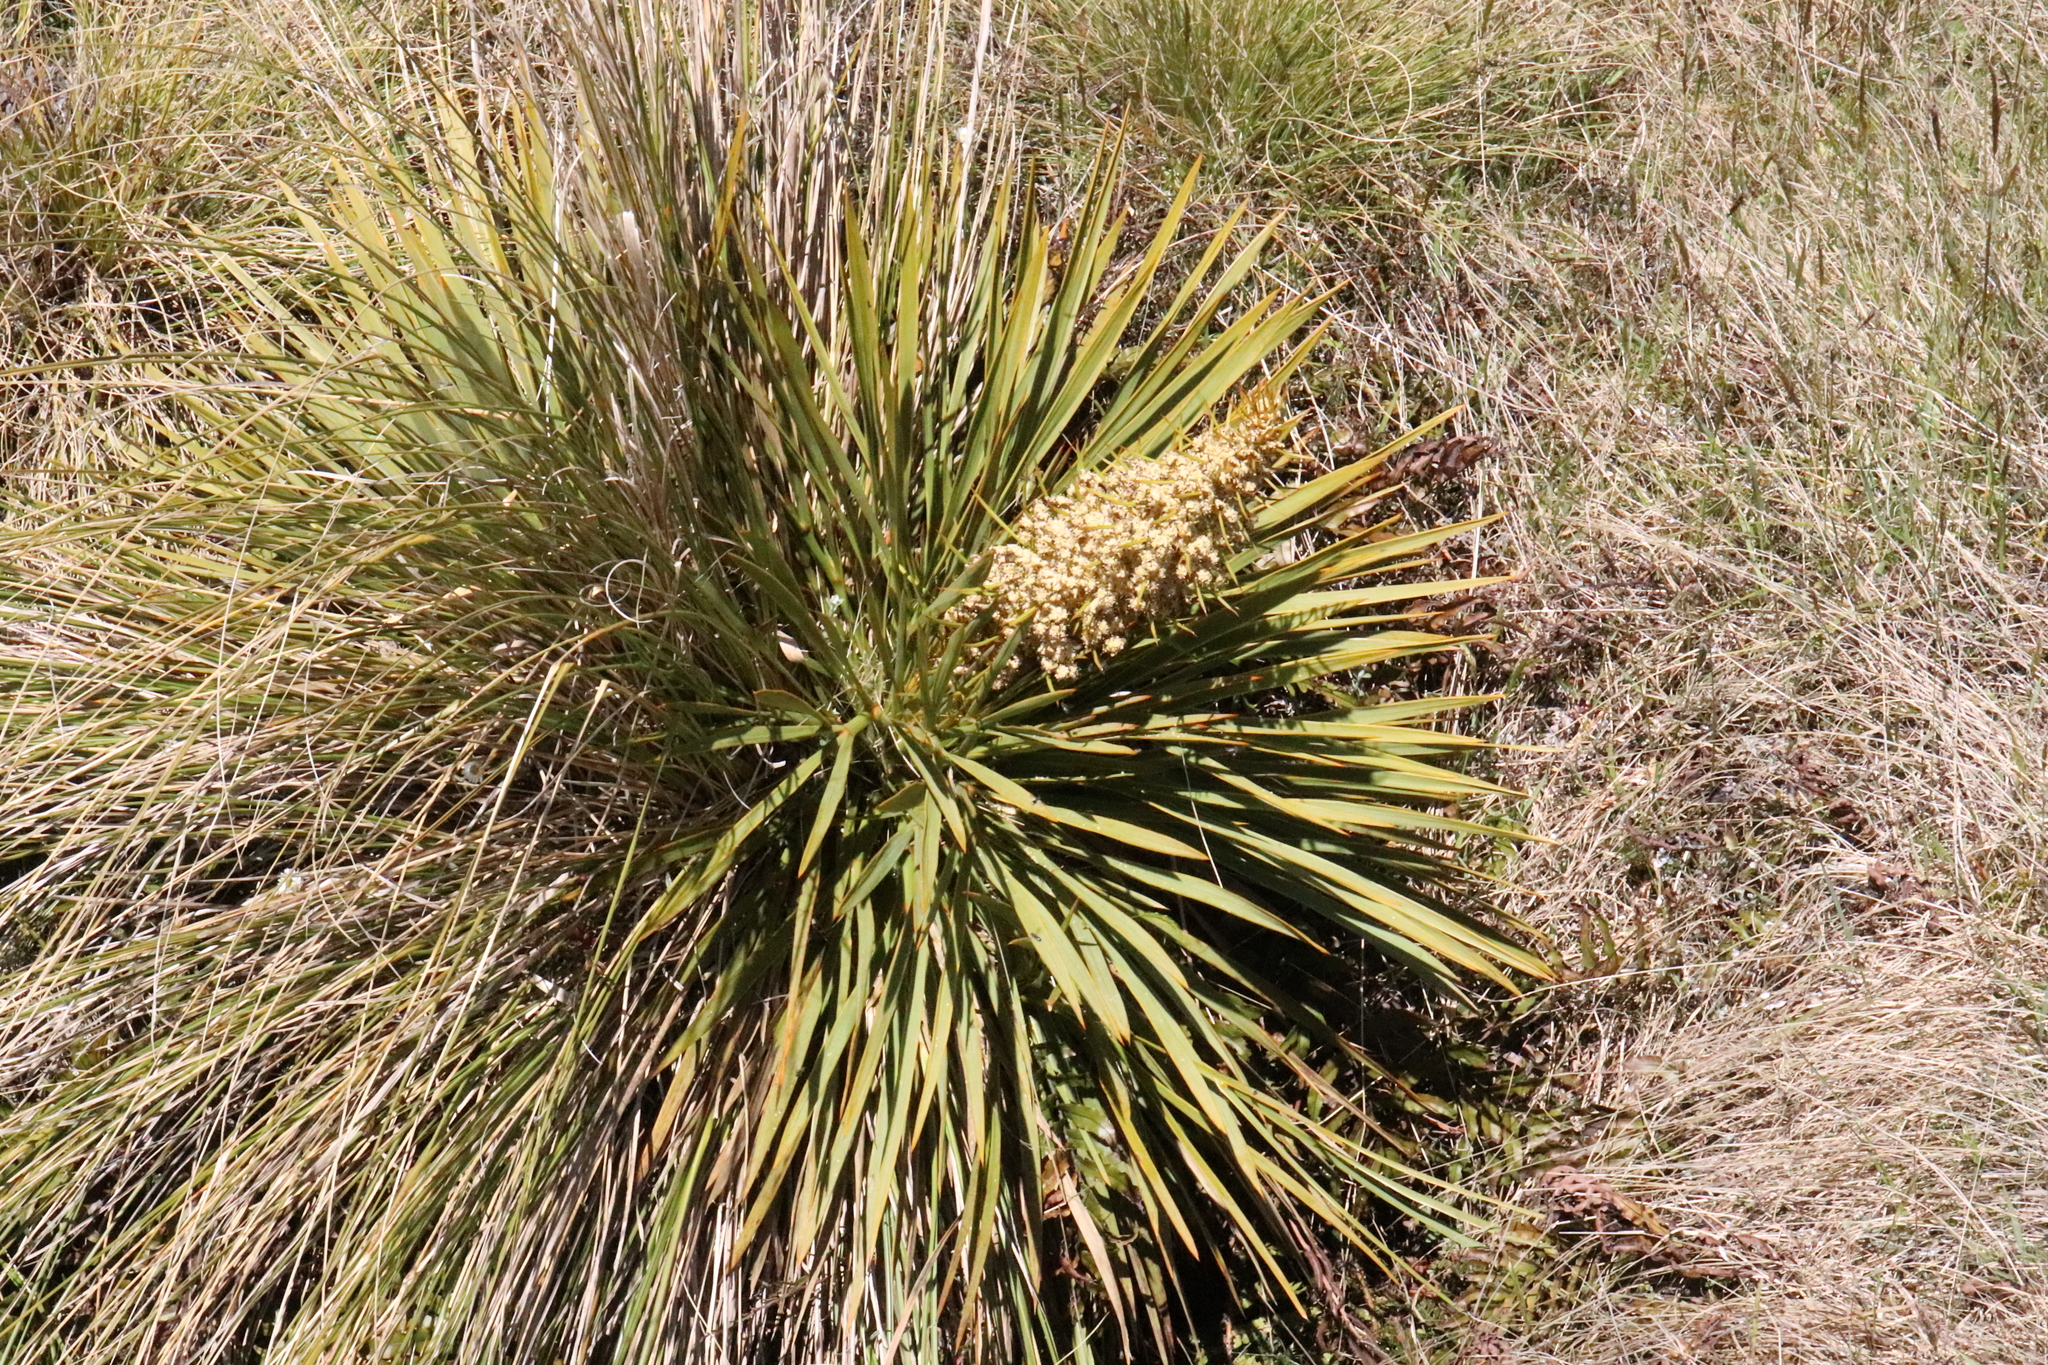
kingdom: Plantae
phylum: Tracheophyta
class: Magnoliopsida
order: Apiales
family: Apiaceae
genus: Aciphylla
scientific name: Aciphylla aurea
